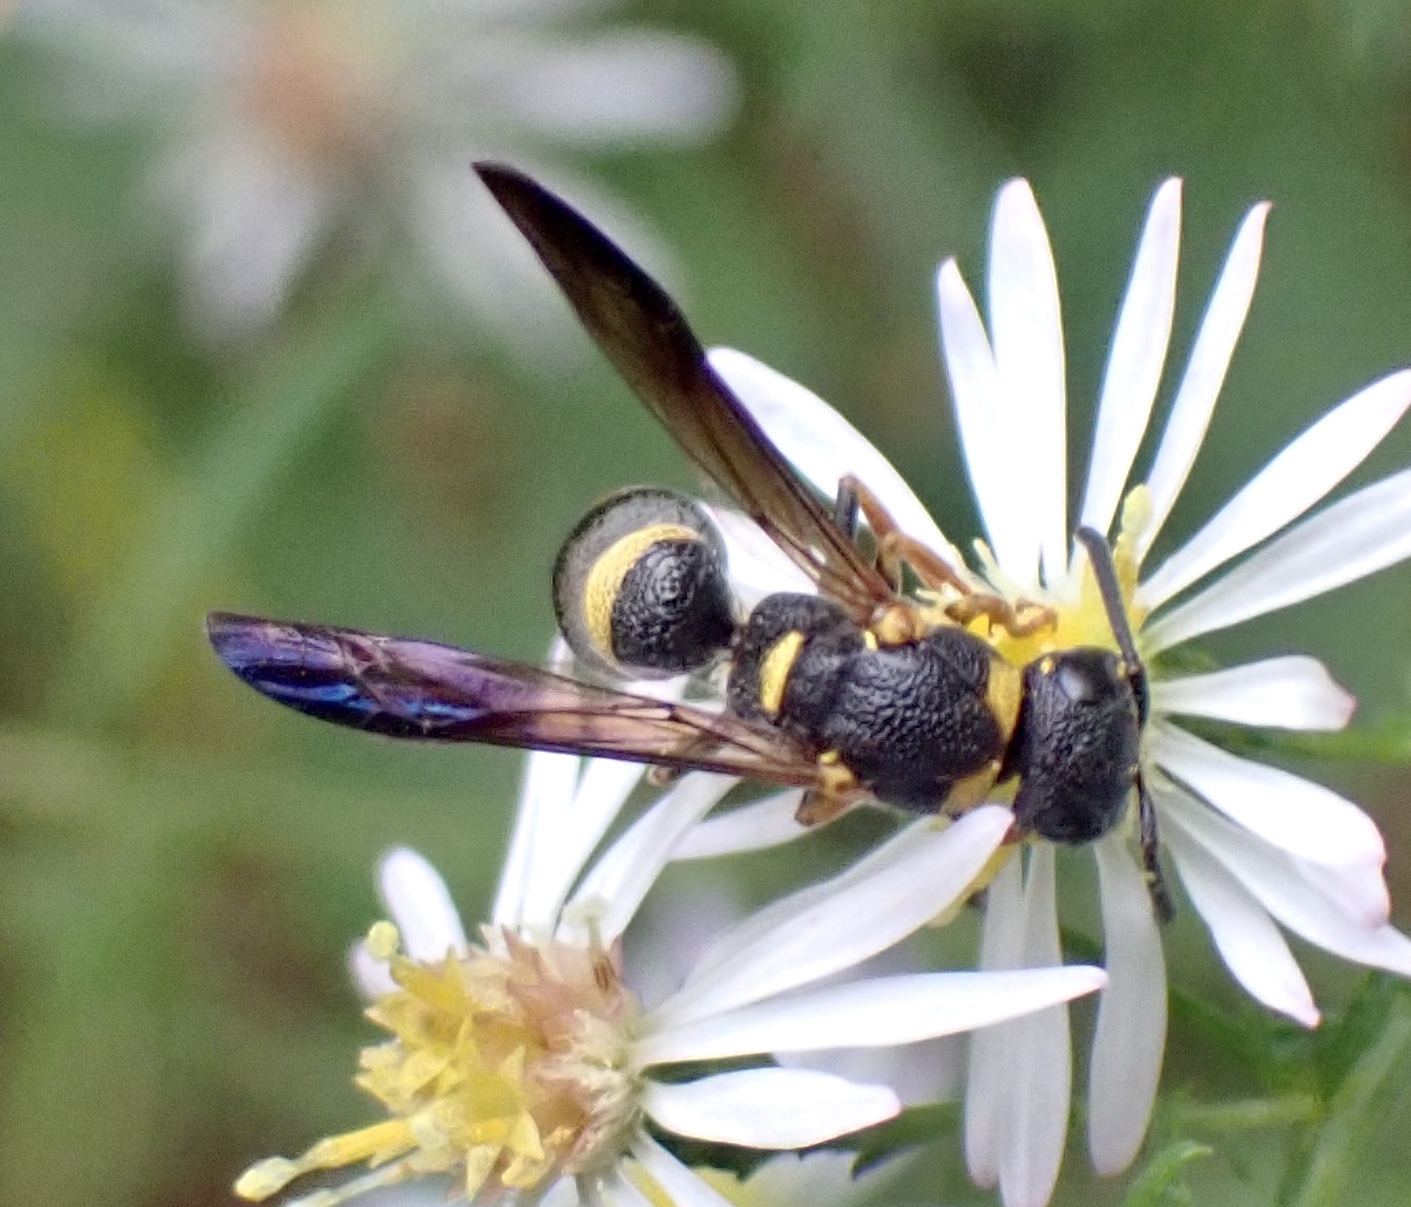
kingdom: Animalia
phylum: Arthropoda
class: Insecta
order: Hymenoptera
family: Eumenidae
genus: Parancistrocerus
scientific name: Parancistrocerus perennis
